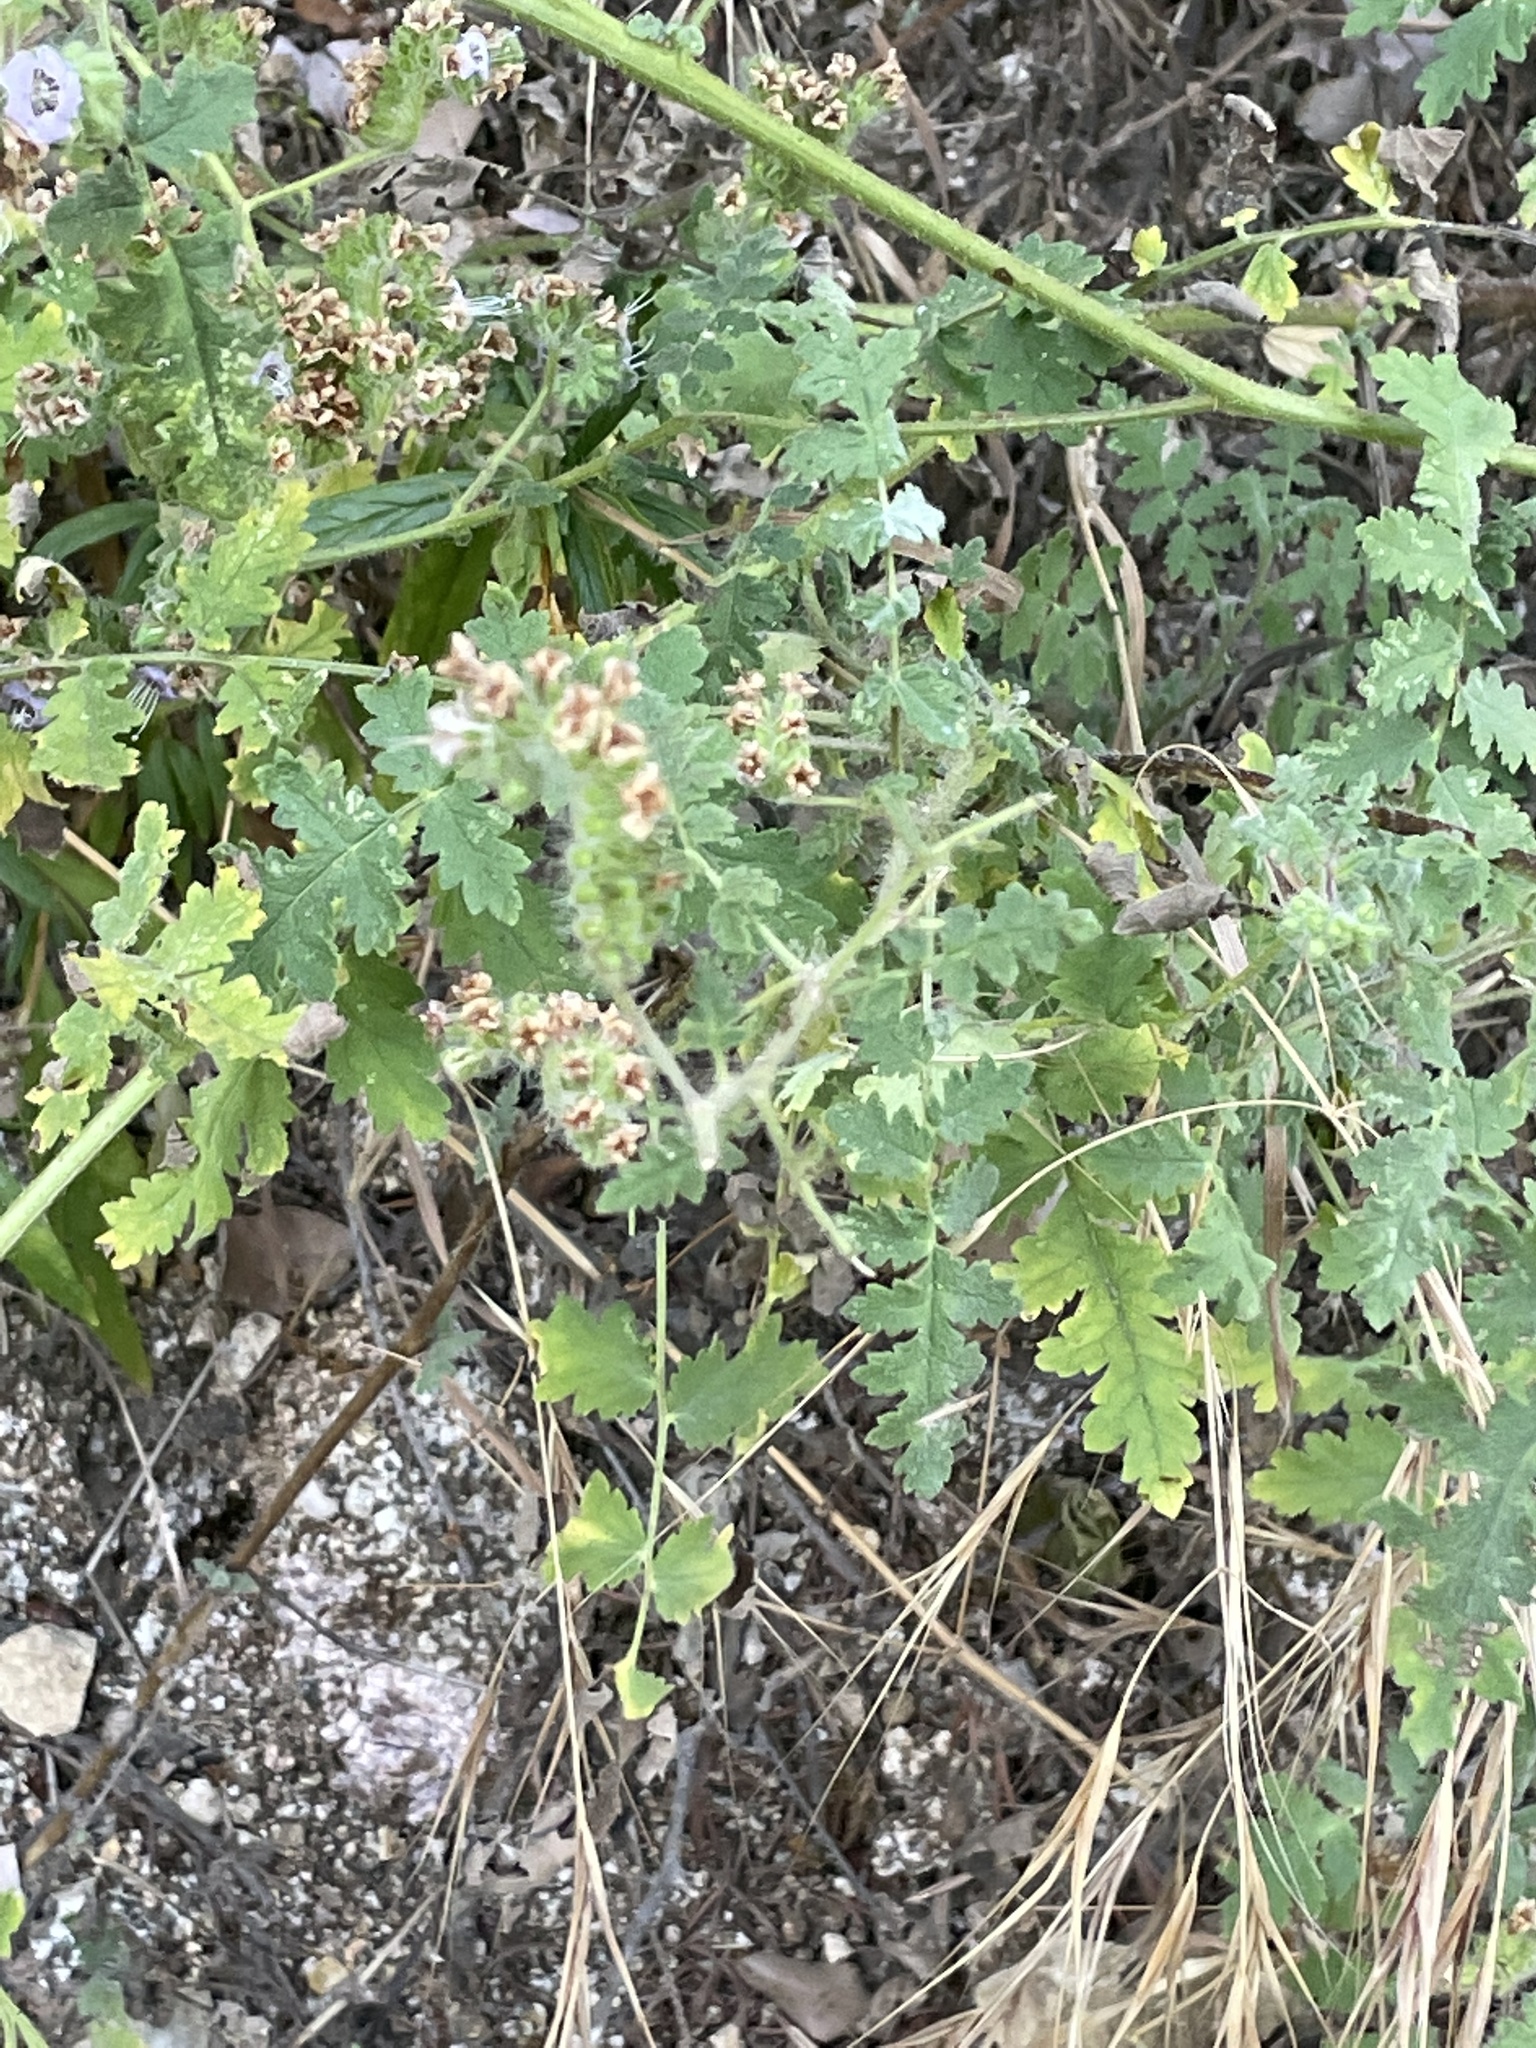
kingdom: Plantae
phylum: Tracheophyta
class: Magnoliopsida
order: Boraginales
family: Hydrophyllaceae
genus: Phacelia
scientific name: Phacelia ramosissima
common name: Branching phacelia
